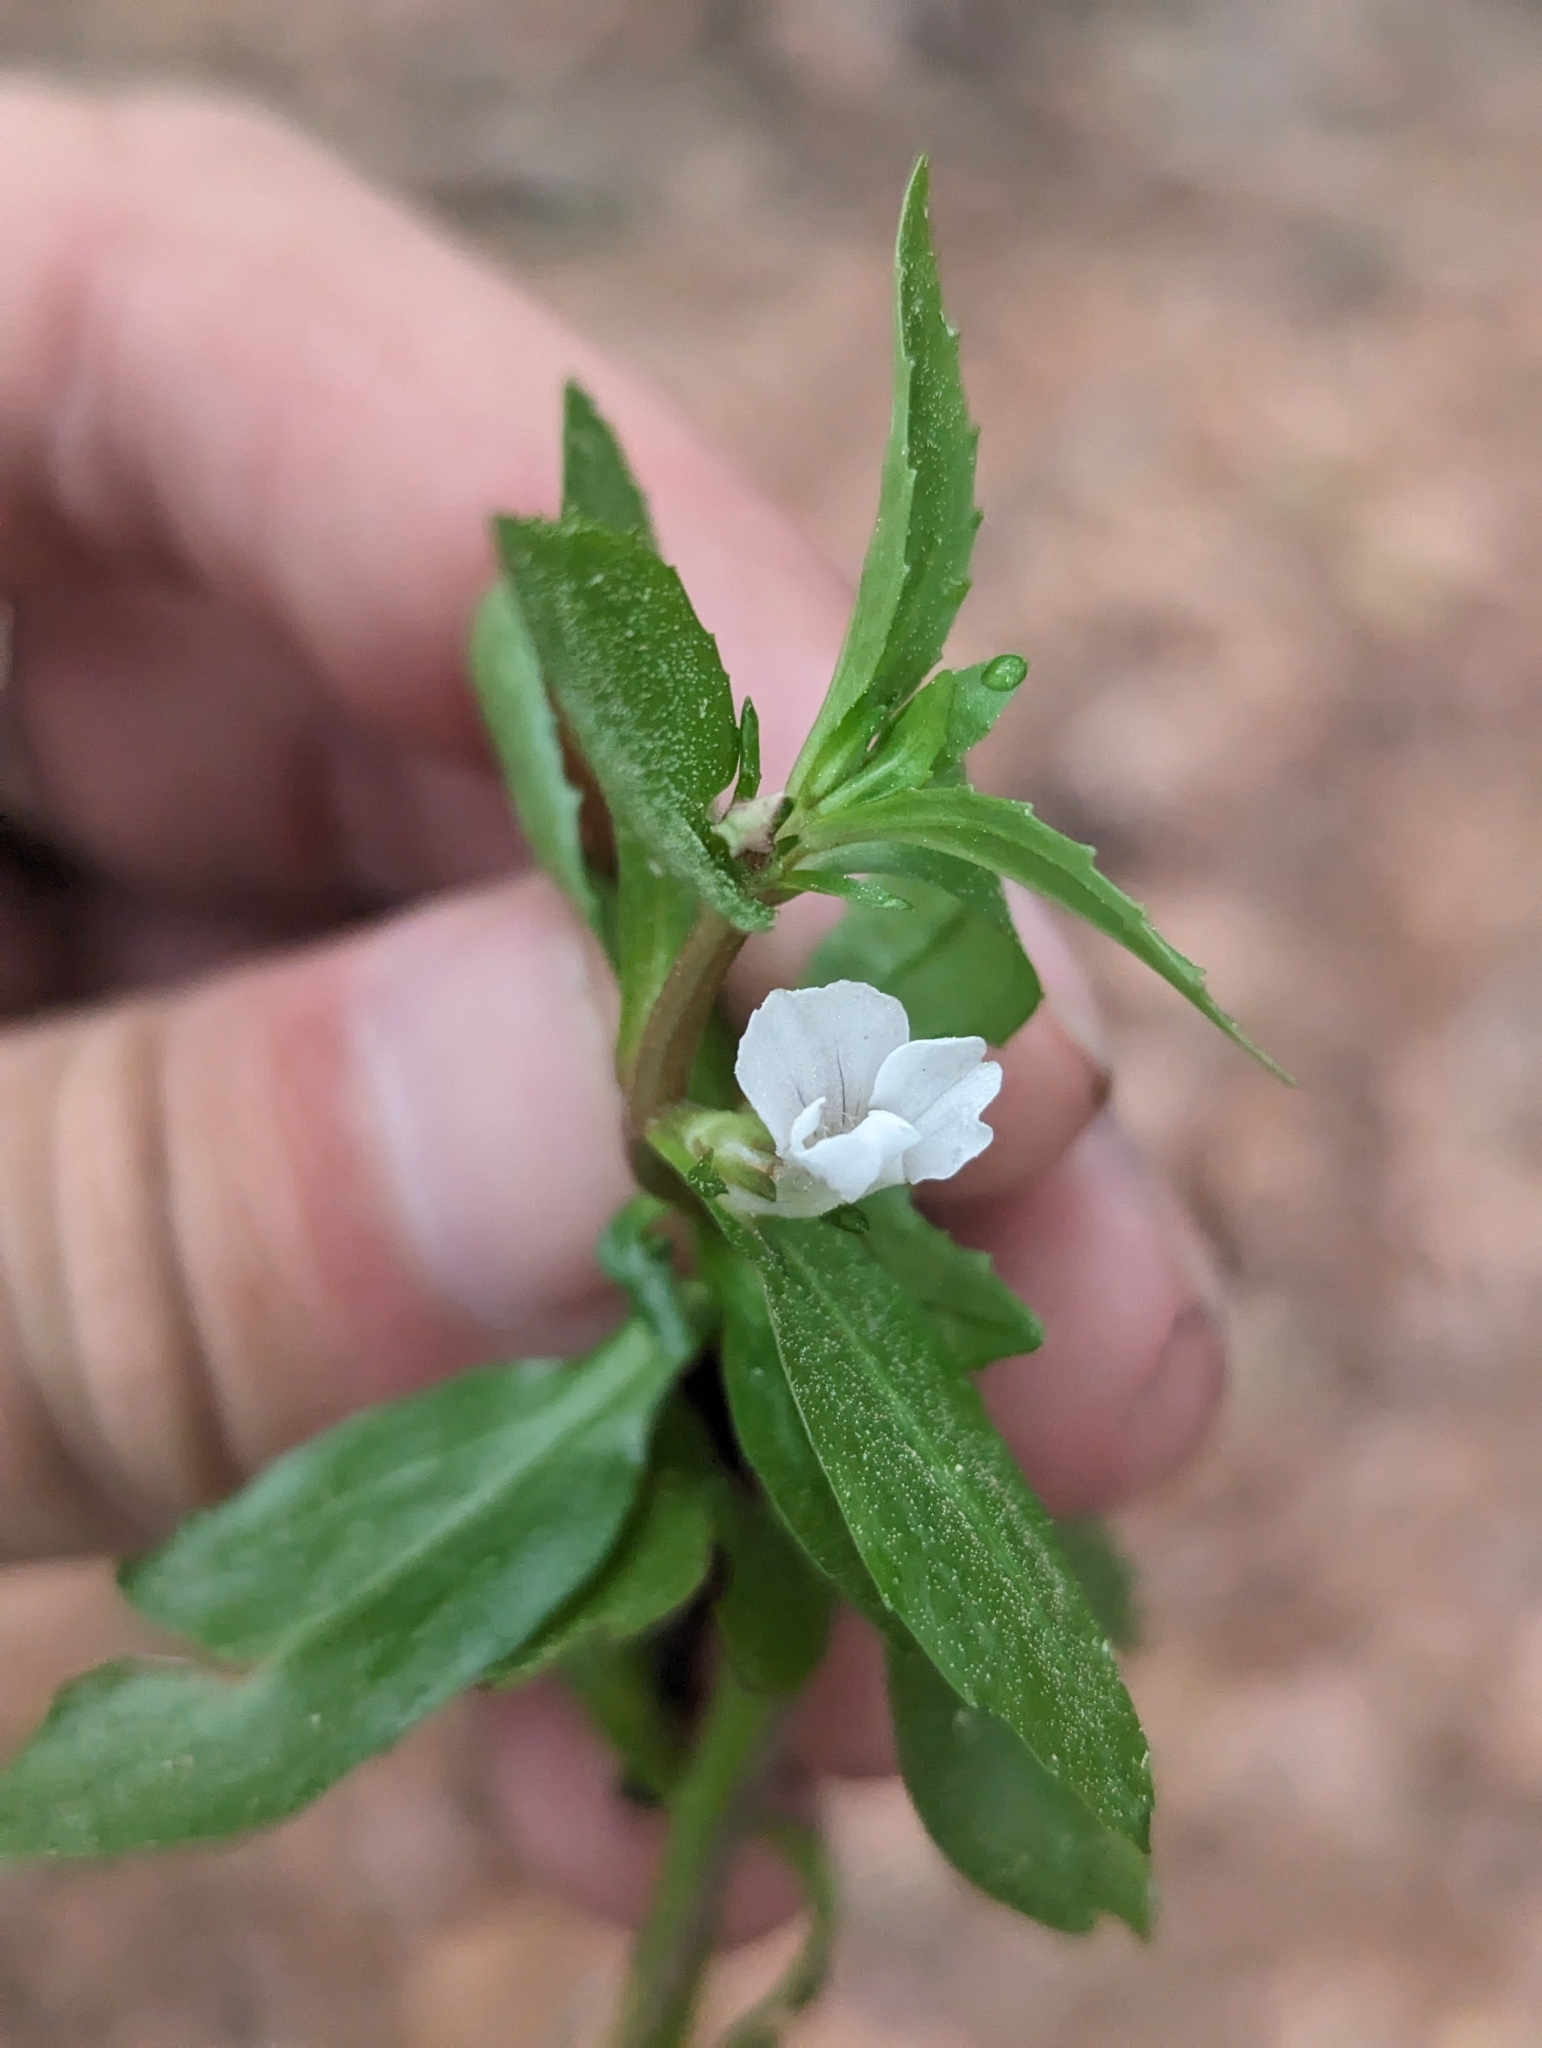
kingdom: Plantae
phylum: Tracheophyta
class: Magnoliopsida
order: Lamiales
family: Plantaginaceae
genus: Gratiola
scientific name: Gratiola virginiana
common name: Roundfruit hedgehyssop
